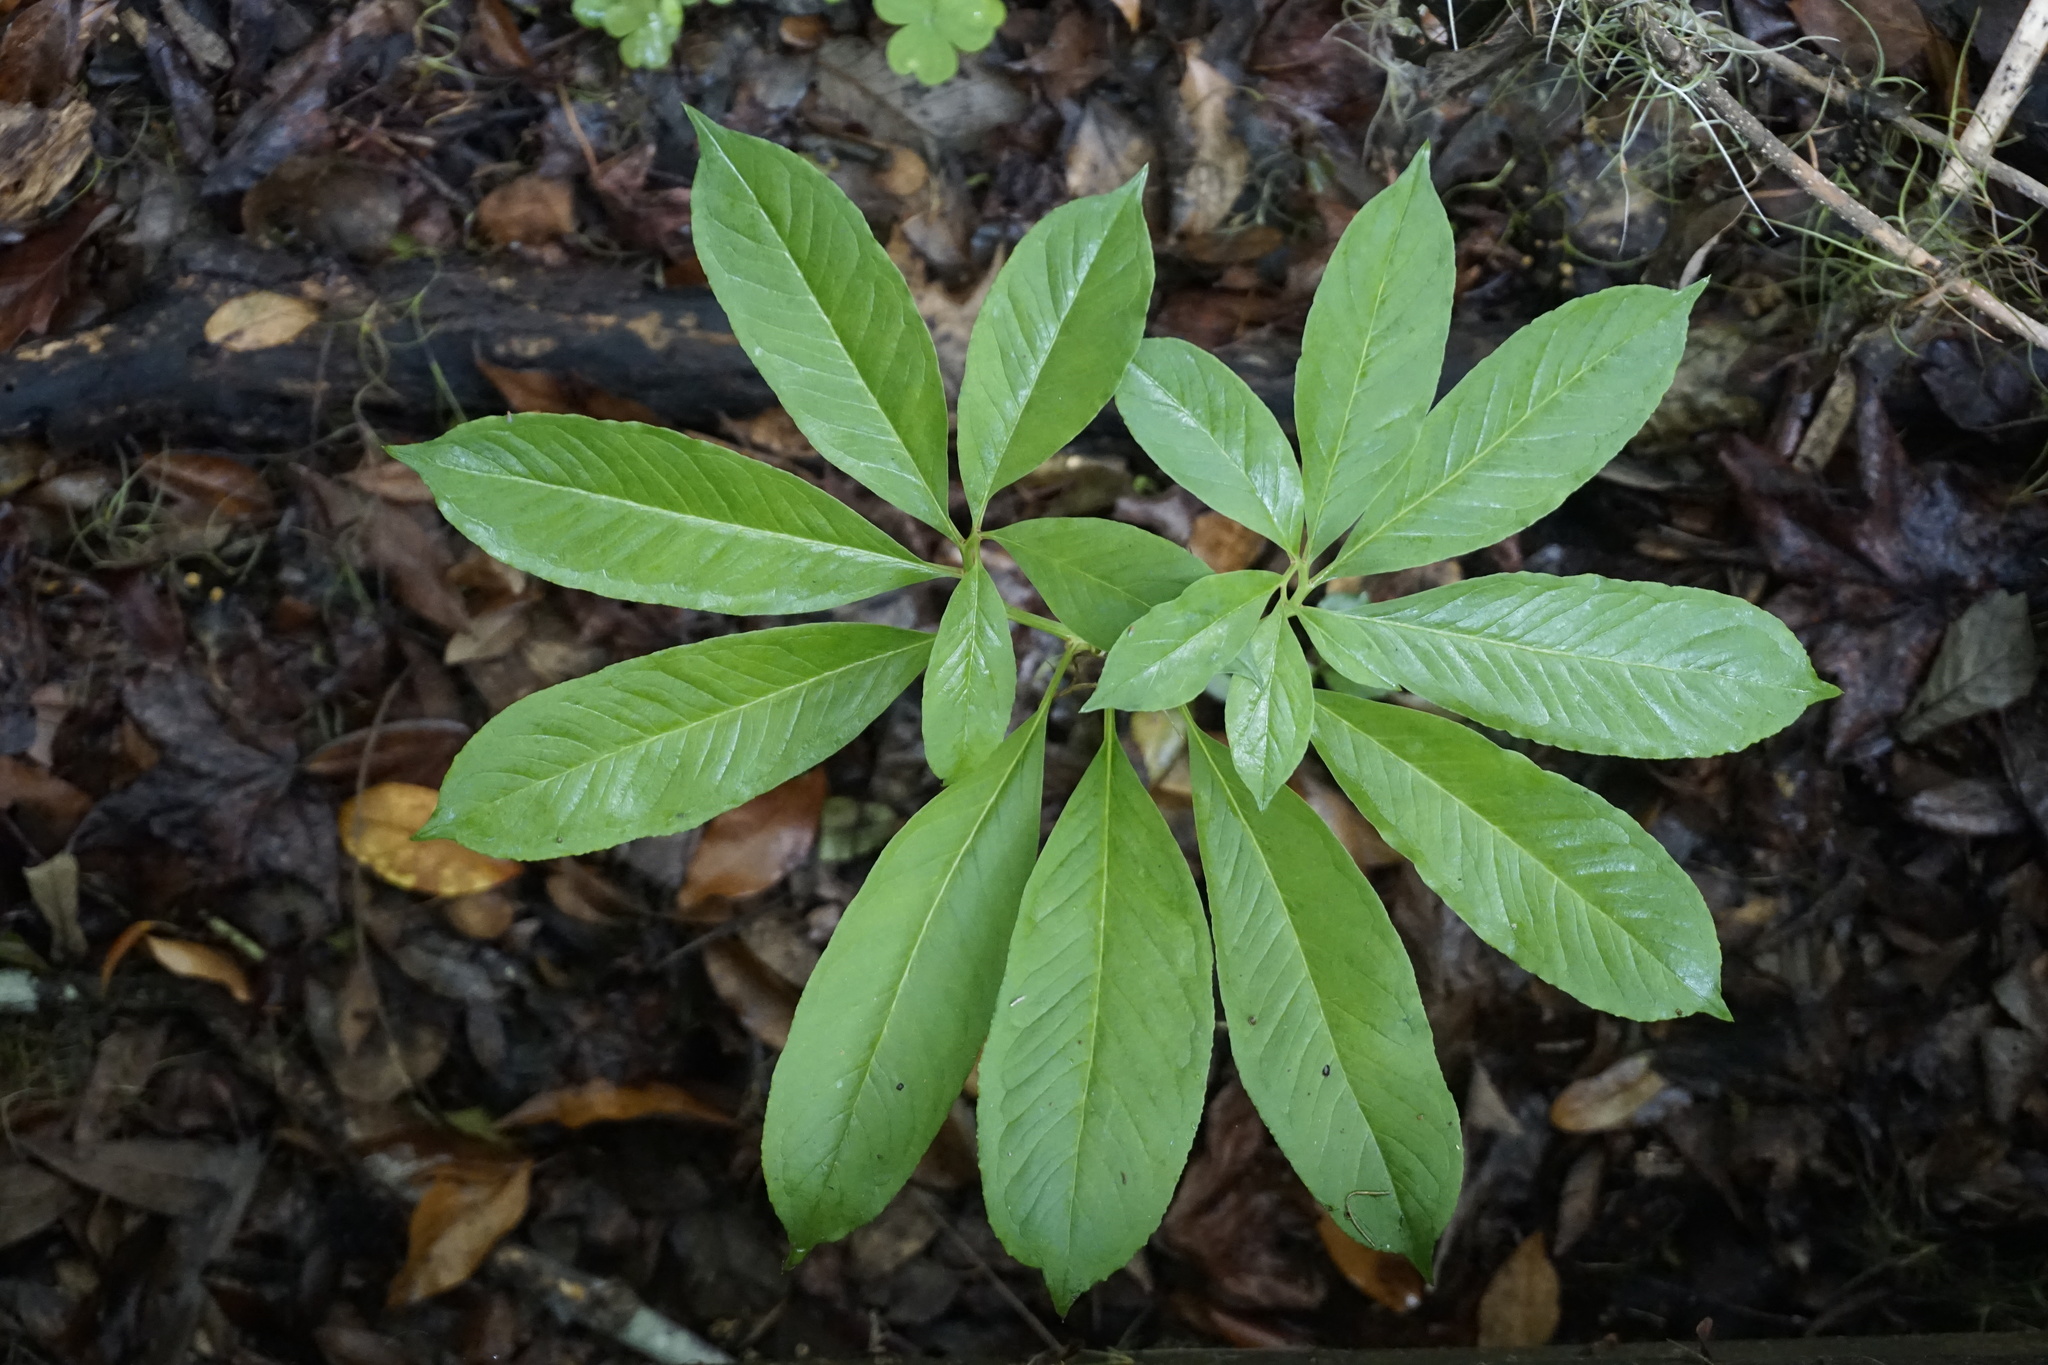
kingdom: Plantae
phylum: Tracheophyta
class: Liliopsida
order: Alismatales
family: Araceae
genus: Arisaema
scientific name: Arisaema dracontium
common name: Dragon-arum
